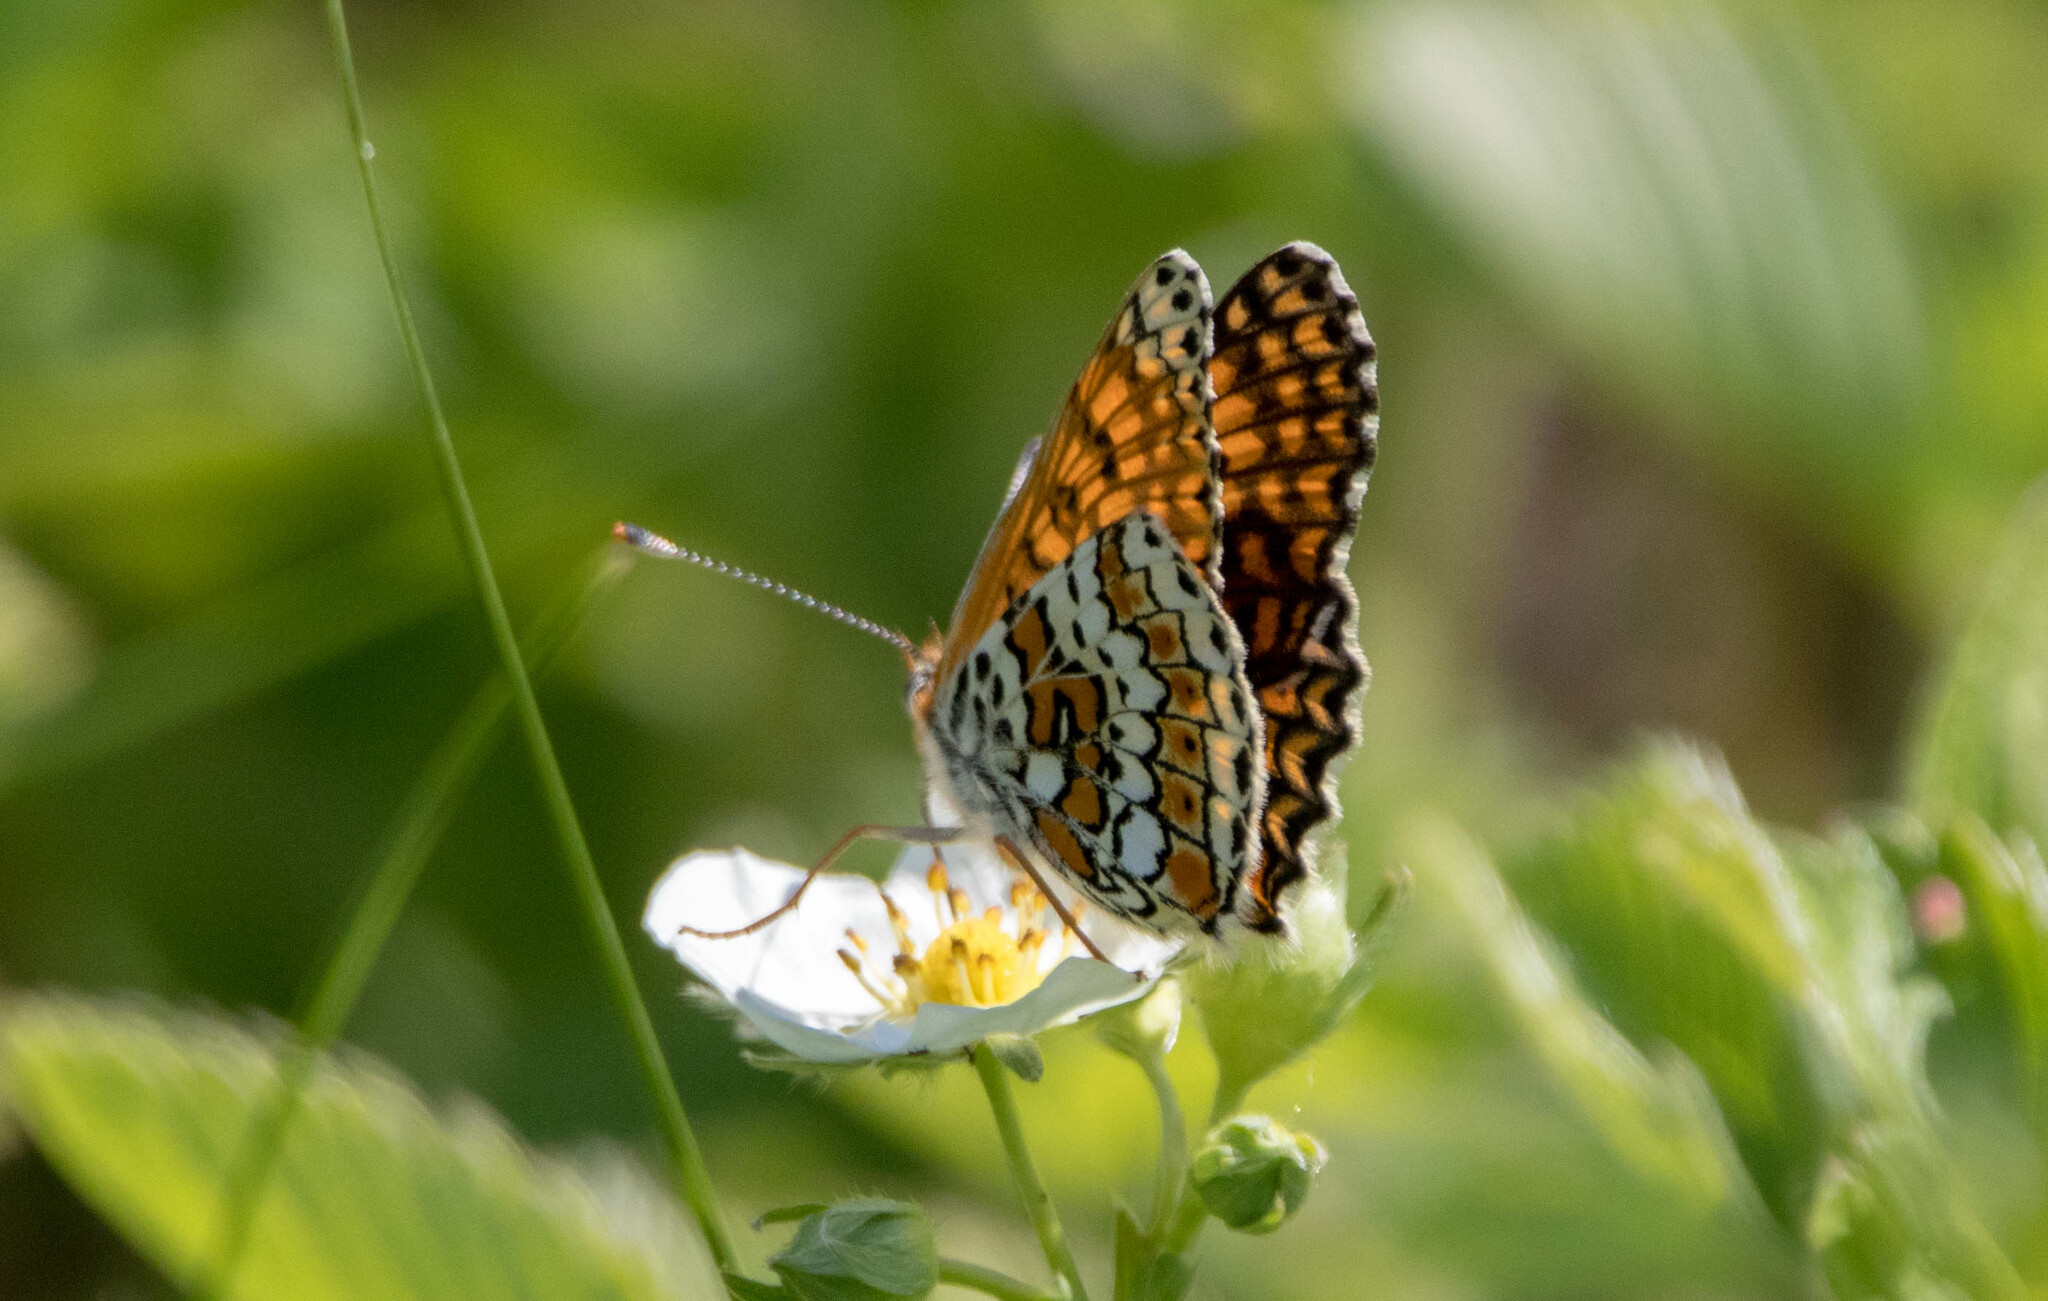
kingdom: Animalia
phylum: Arthropoda
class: Insecta
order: Lepidoptera
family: Nymphalidae
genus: Melitaea
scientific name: Melitaea cinxia
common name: Glanville fritillary
